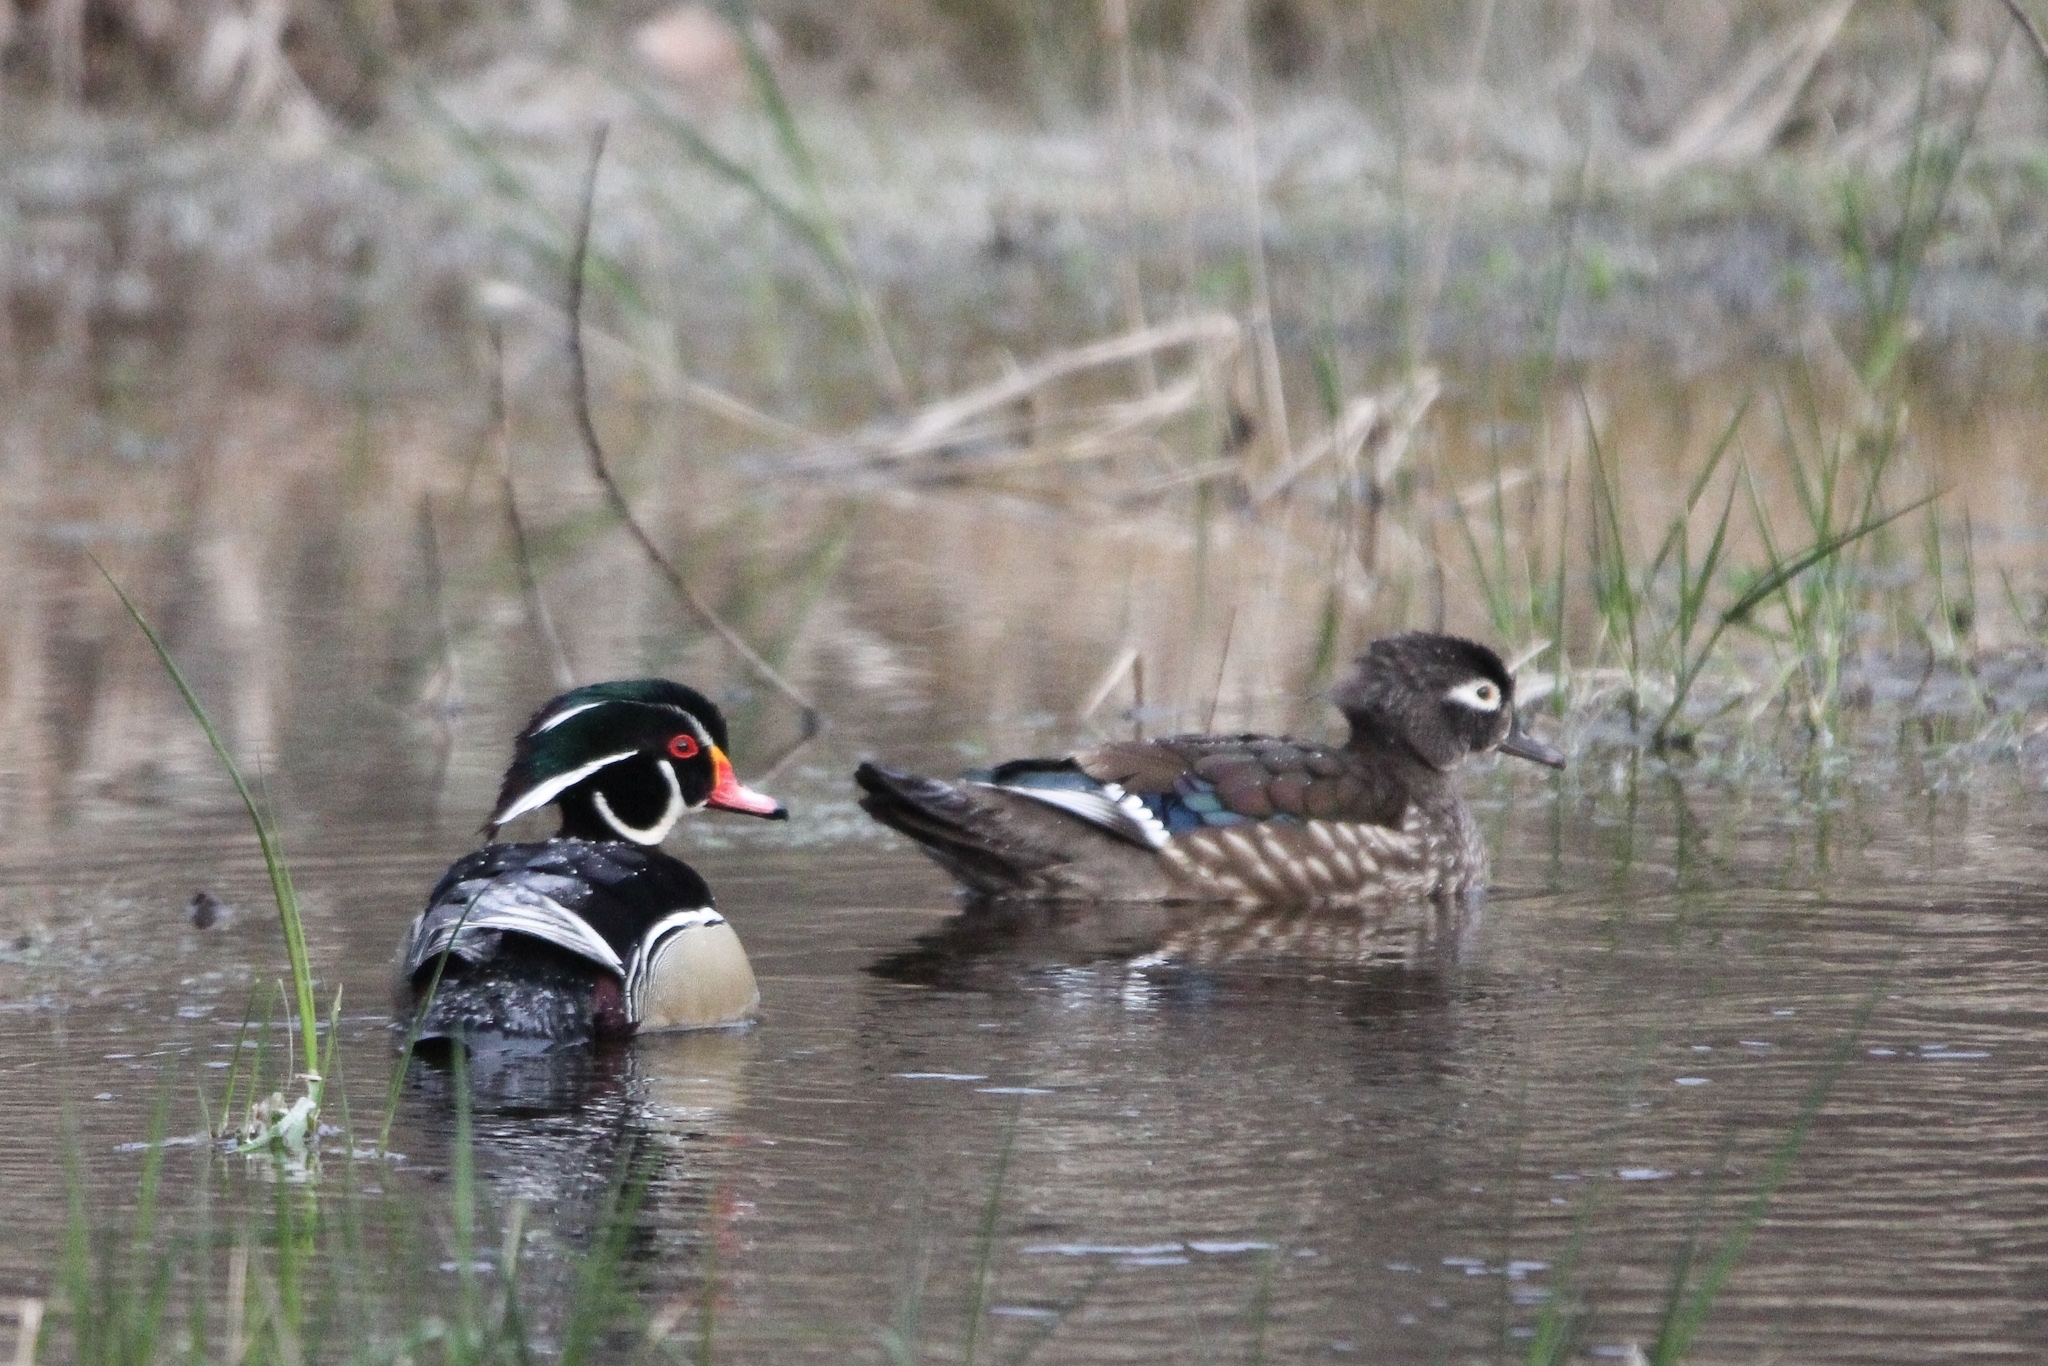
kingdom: Animalia
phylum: Chordata
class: Aves
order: Anseriformes
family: Anatidae
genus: Aix
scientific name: Aix sponsa
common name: Wood duck
